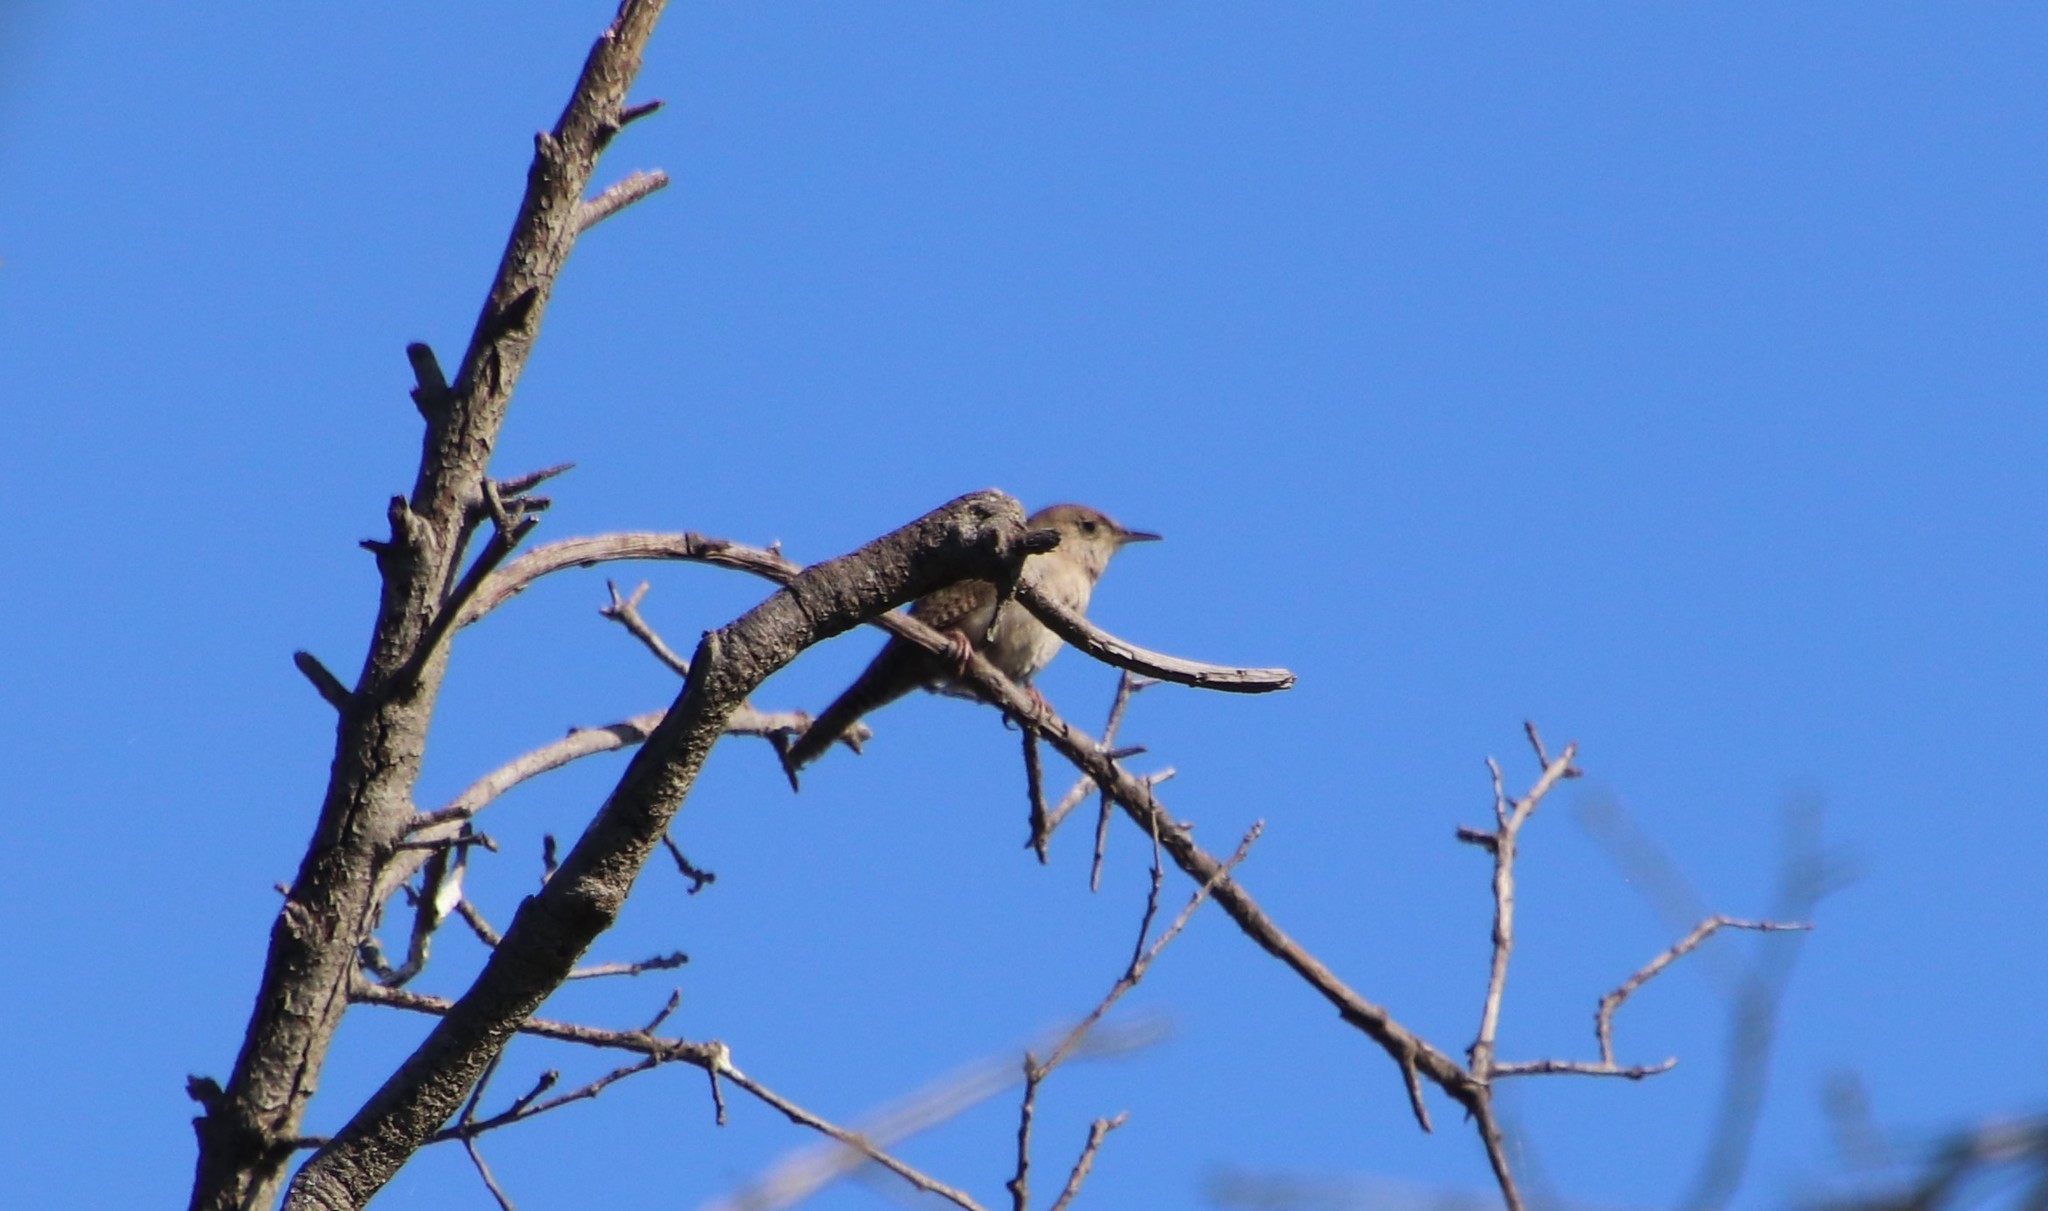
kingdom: Animalia
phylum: Chordata
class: Aves
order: Passeriformes
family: Troglodytidae
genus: Troglodytes
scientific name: Troglodytes aedon
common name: House wren
